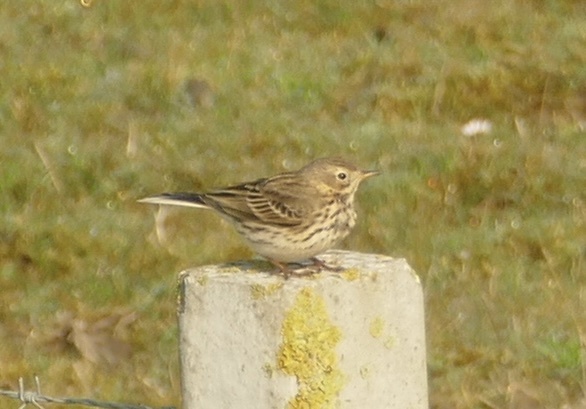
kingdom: Animalia
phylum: Chordata
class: Aves
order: Passeriformes
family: Motacillidae
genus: Anthus
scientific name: Anthus pratensis
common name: Meadow pipit
